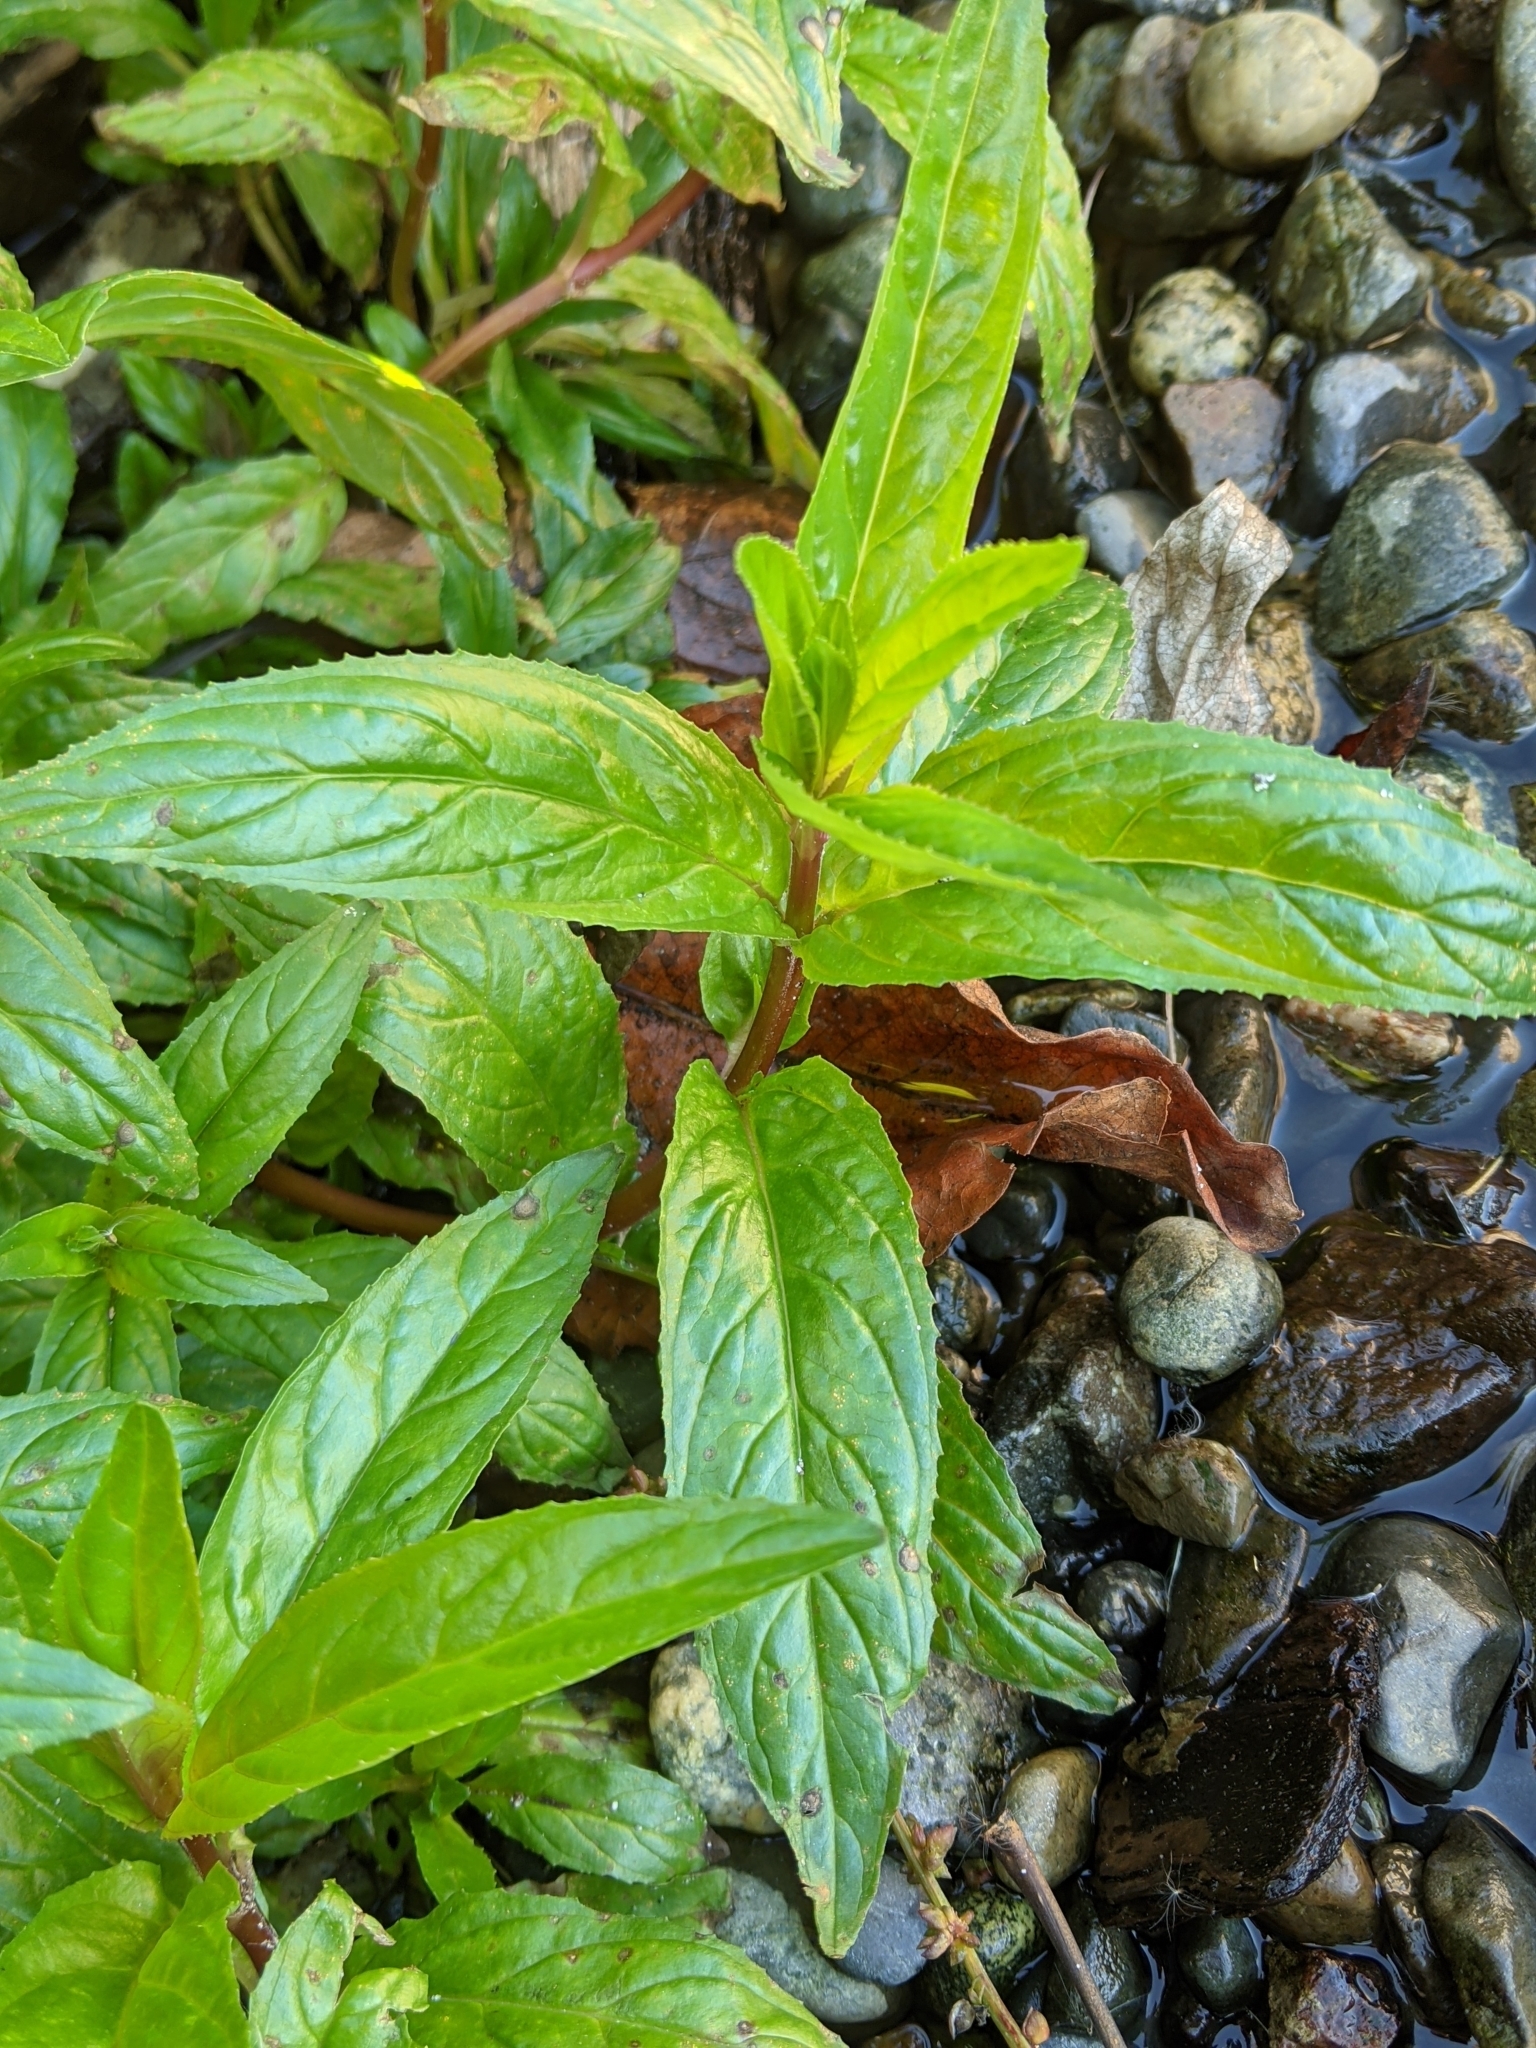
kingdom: Plantae
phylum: Tracheophyta
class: Magnoliopsida
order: Myrtales
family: Onagraceae
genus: Epilobium
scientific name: Epilobium ciliatum
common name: American willowherb
